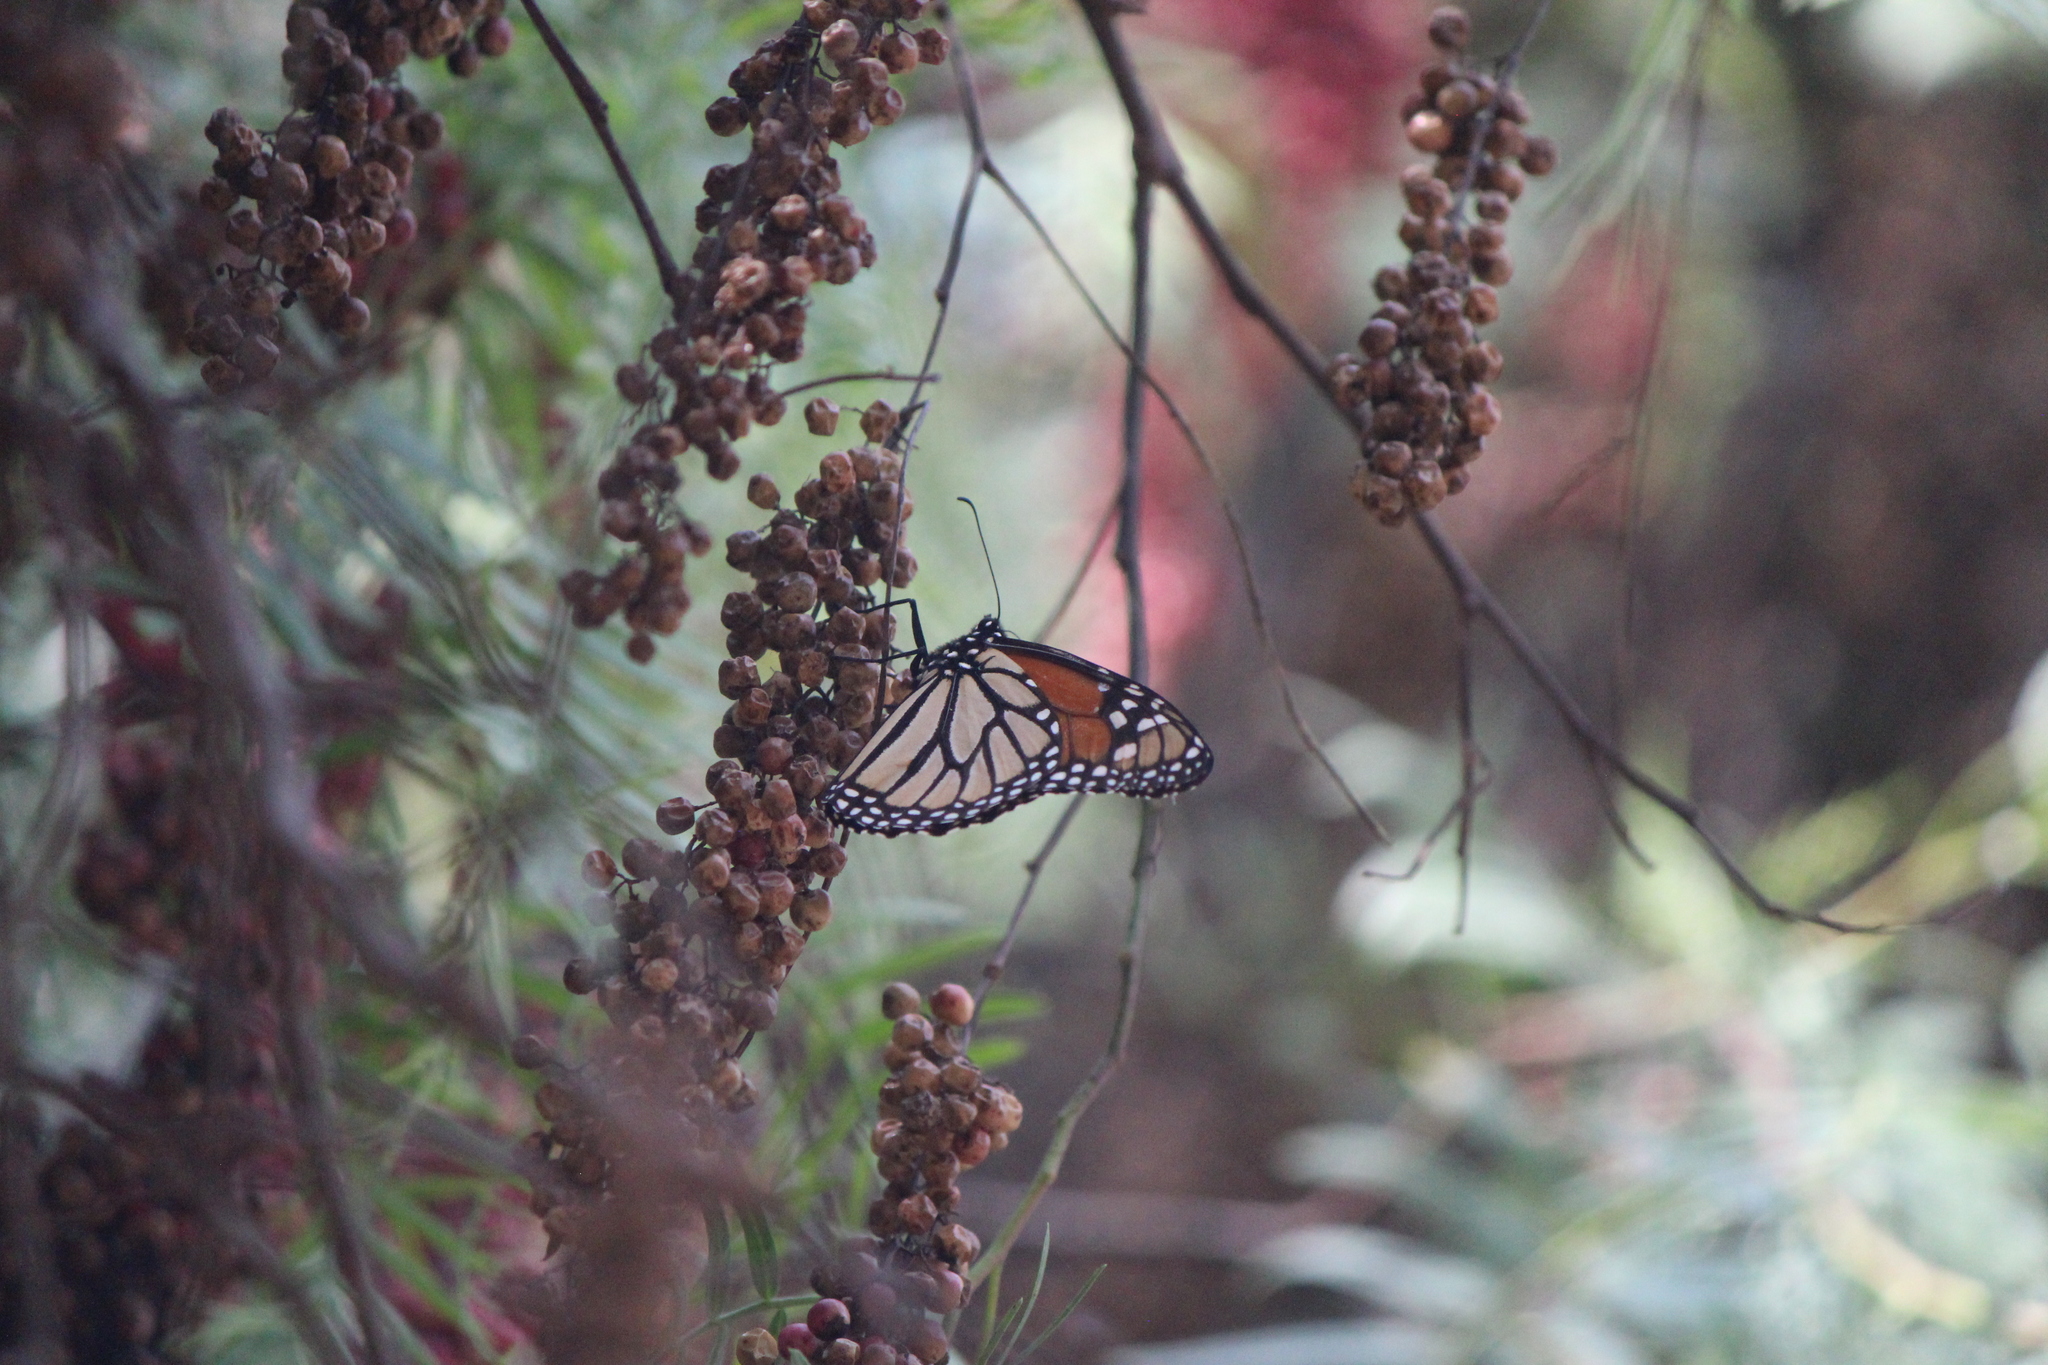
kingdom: Animalia
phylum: Arthropoda
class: Insecta
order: Lepidoptera
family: Nymphalidae
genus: Danaus
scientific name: Danaus plexippus
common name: Monarch
